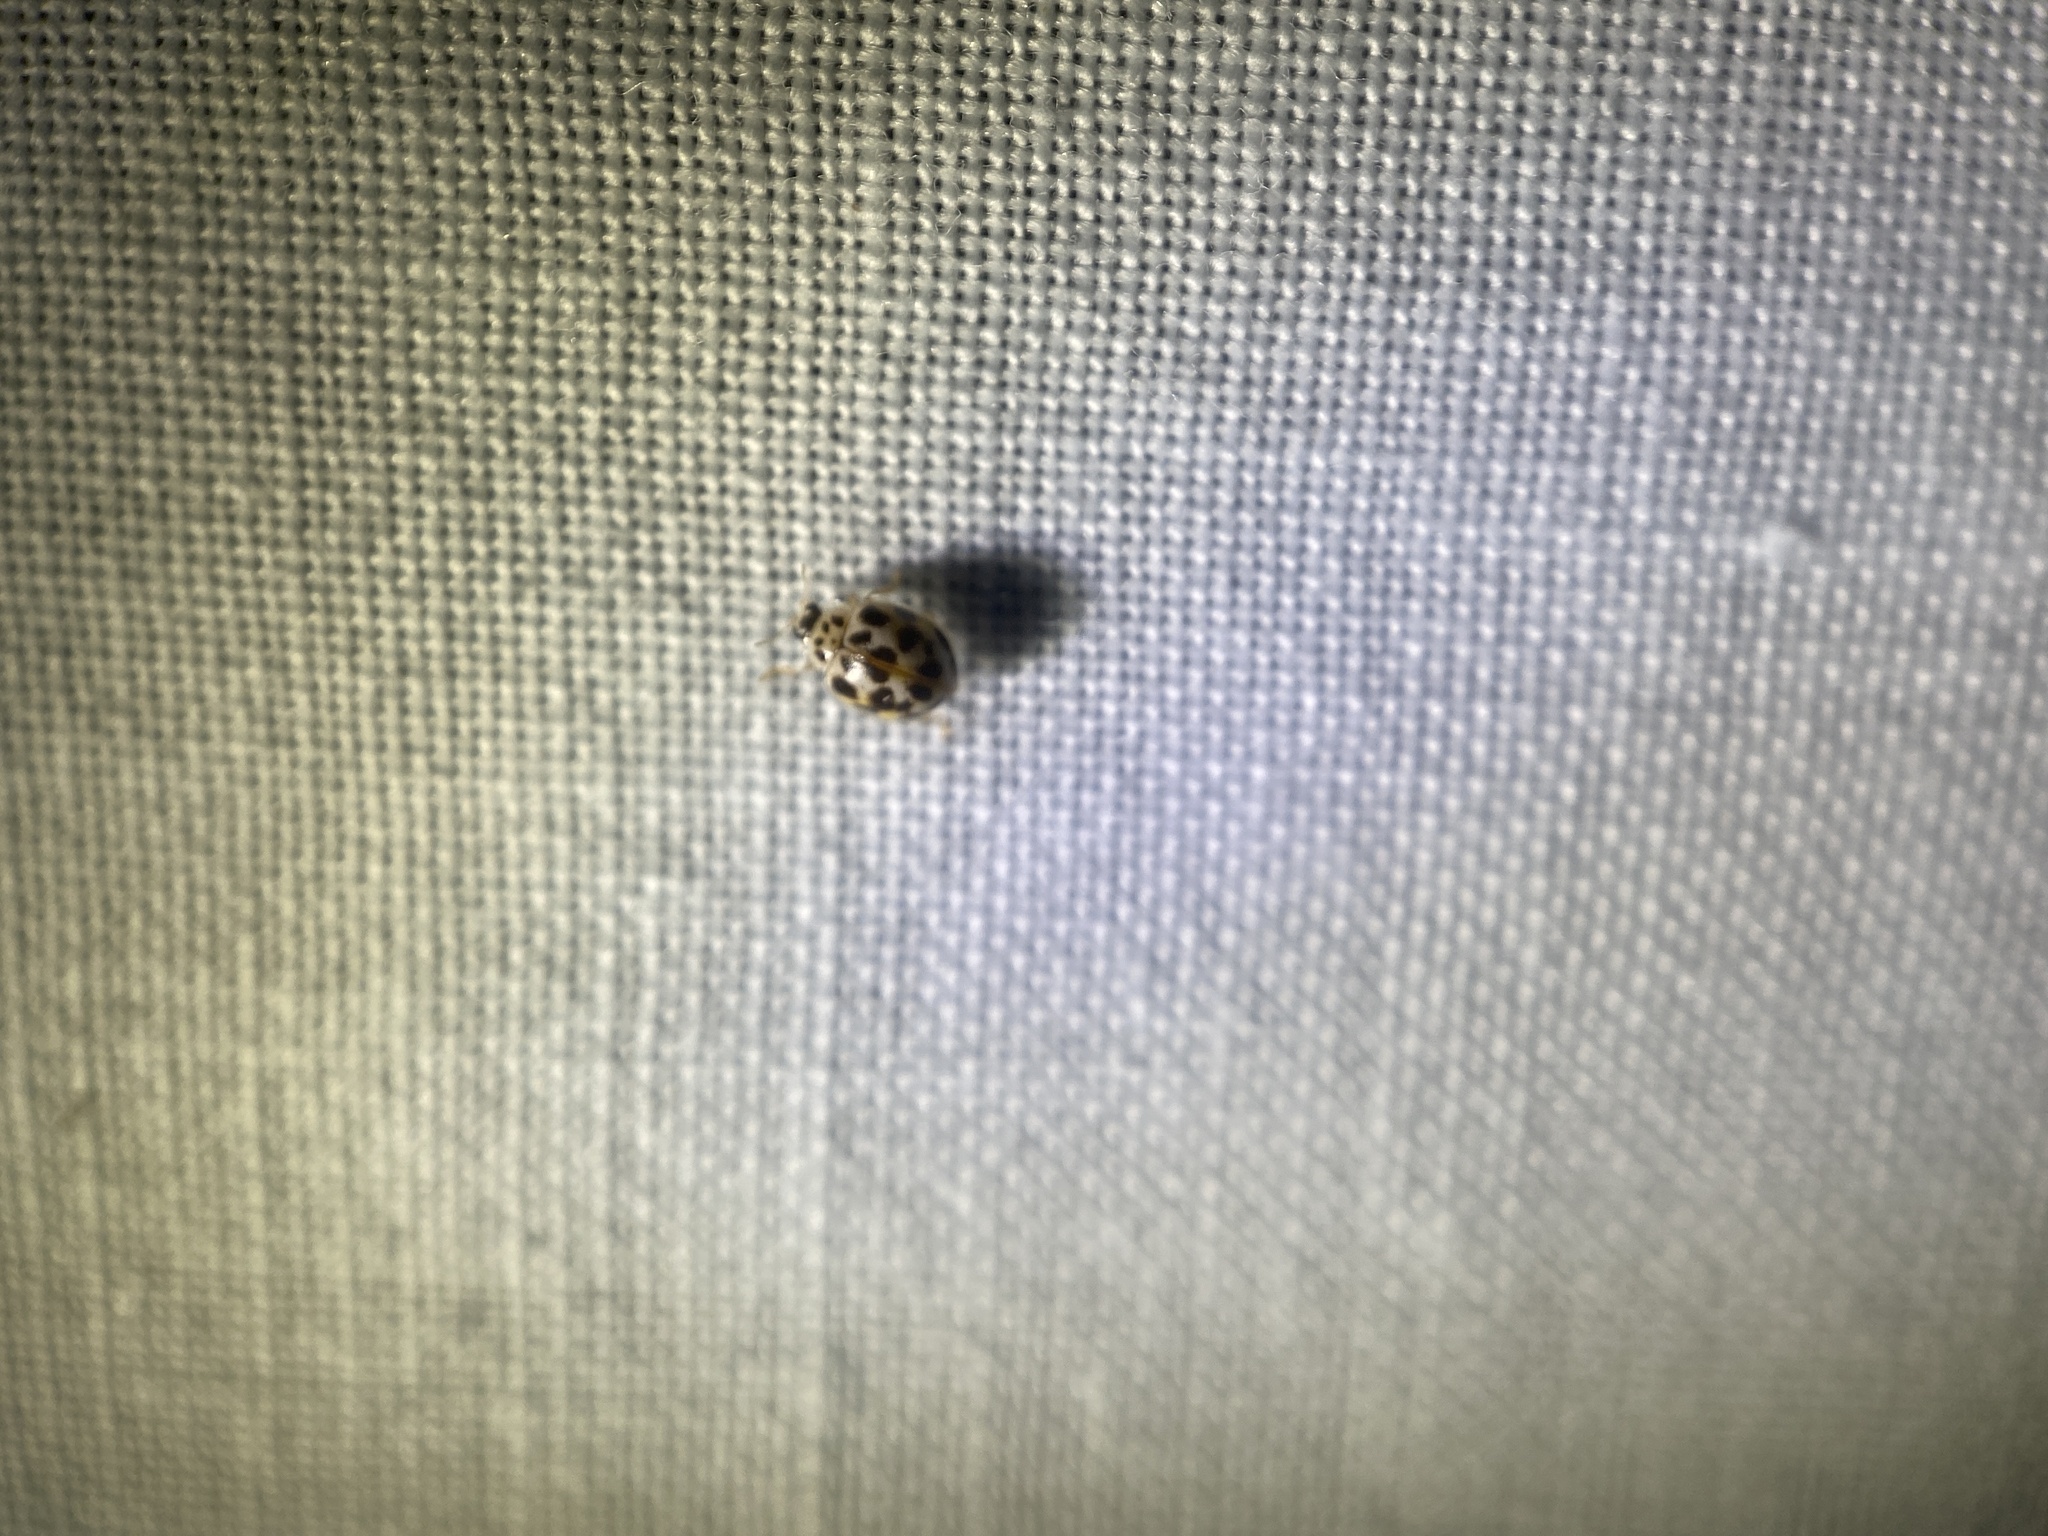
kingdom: Animalia
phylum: Arthropoda
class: Insecta
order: Coleoptera
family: Coccinellidae
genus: Psyllobora
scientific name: Psyllobora vigintimaculata
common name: Ladybird beetle
